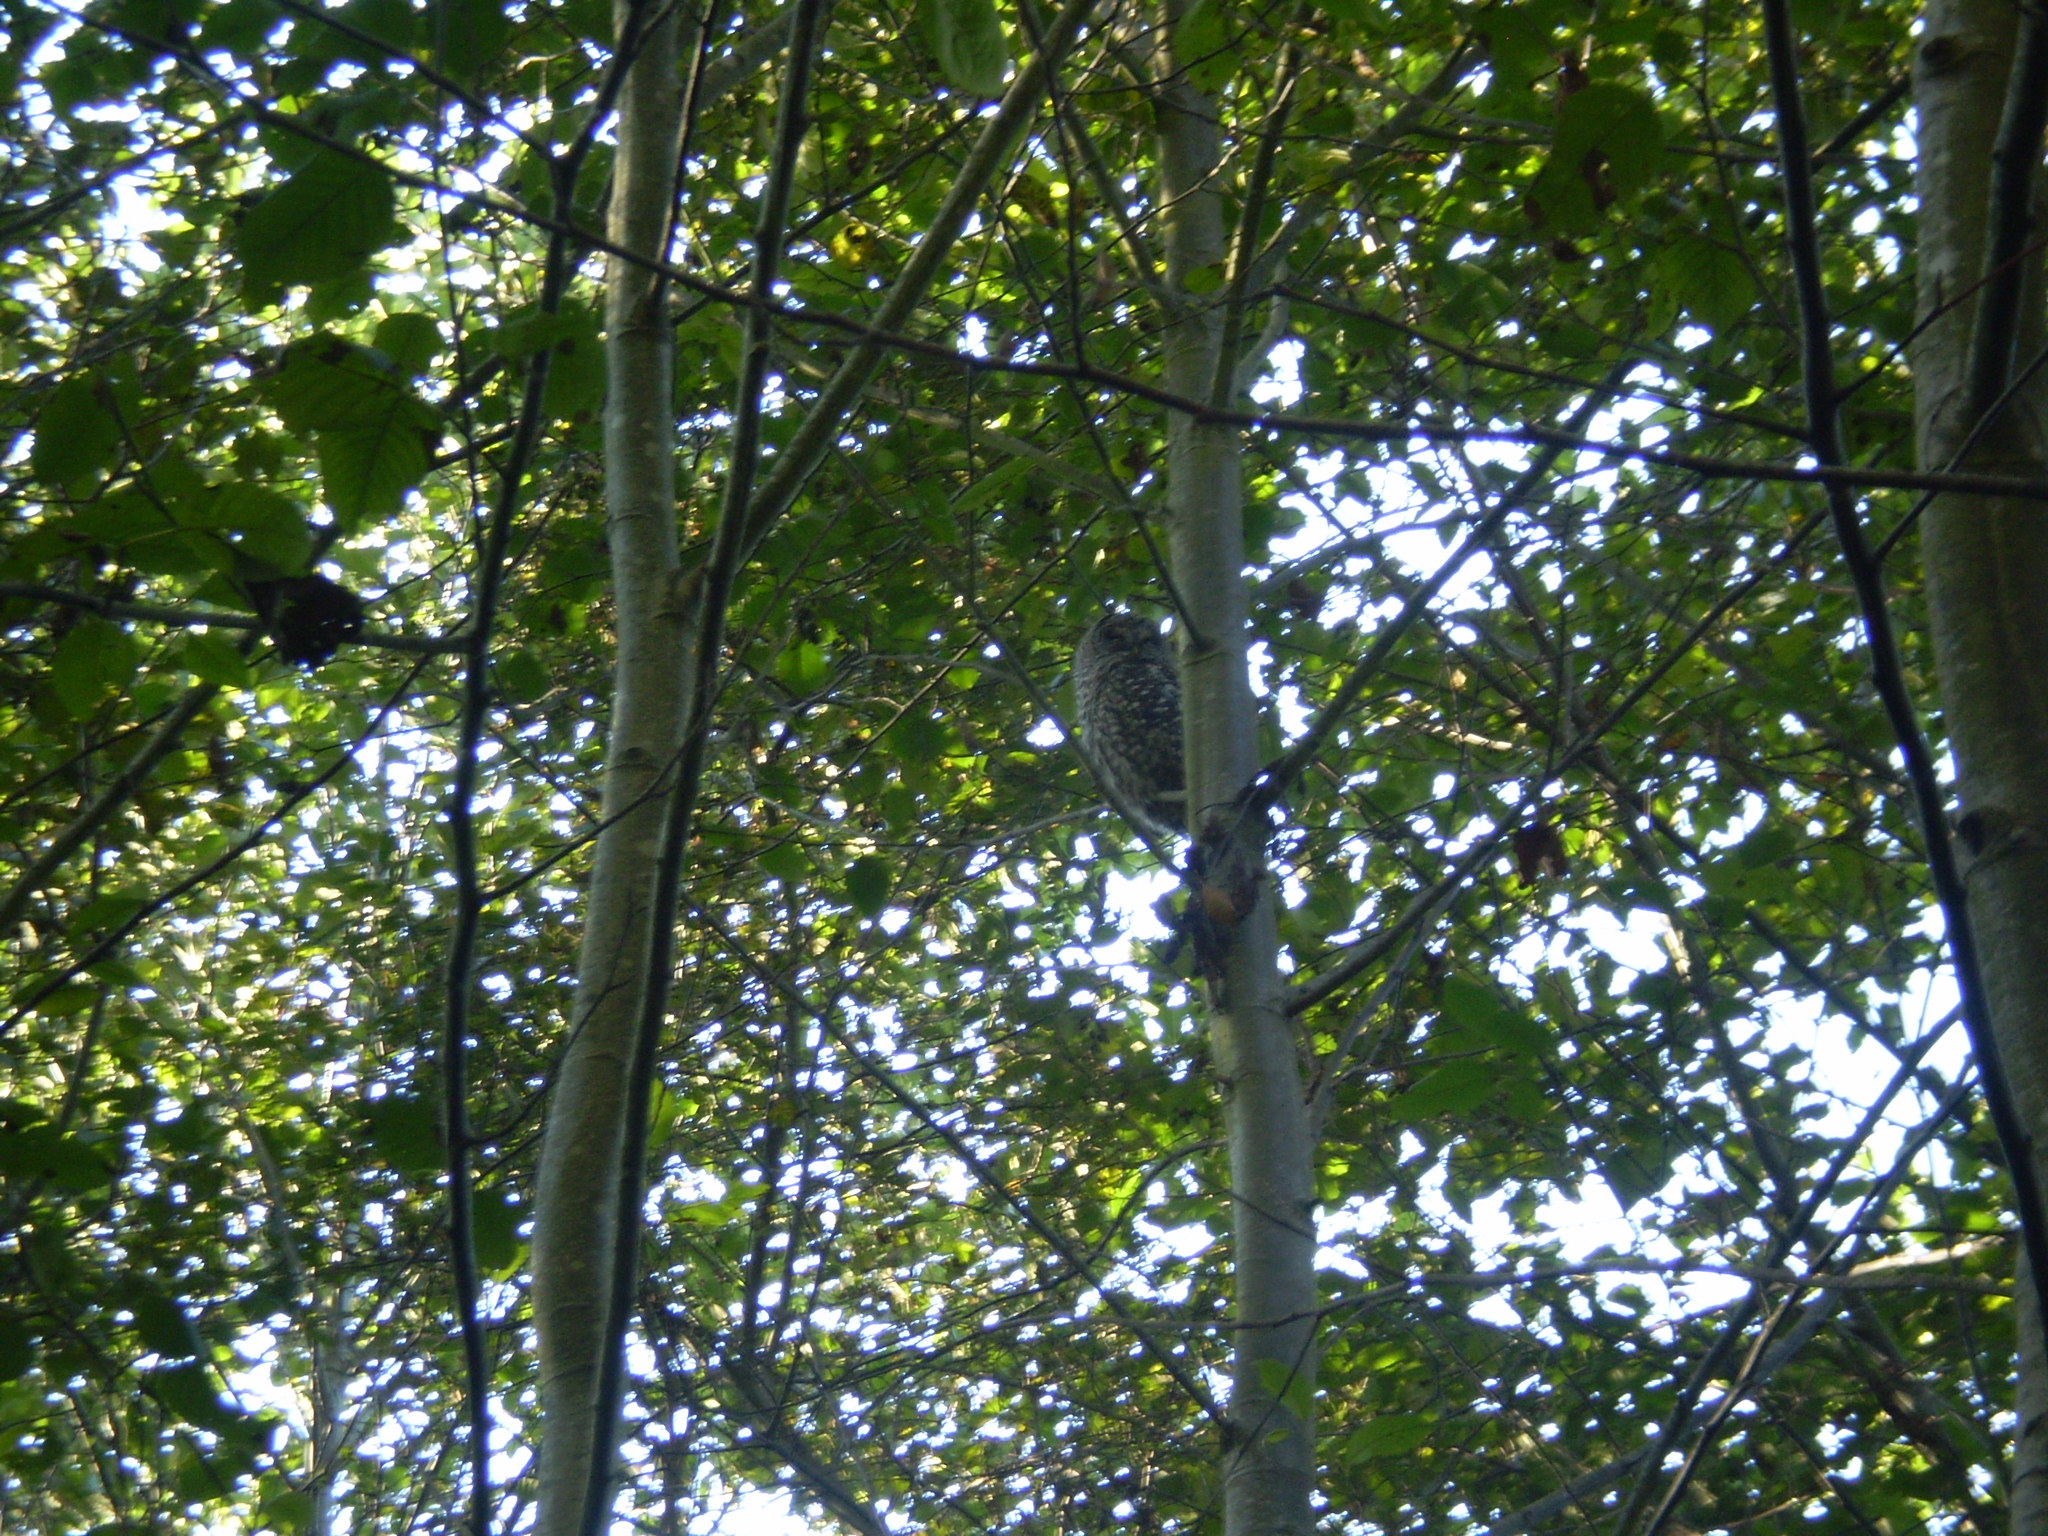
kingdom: Animalia
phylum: Chordata
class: Aves
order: Strigiformes
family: Strigidae
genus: Strix
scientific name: Strix varia
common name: Barred owl
